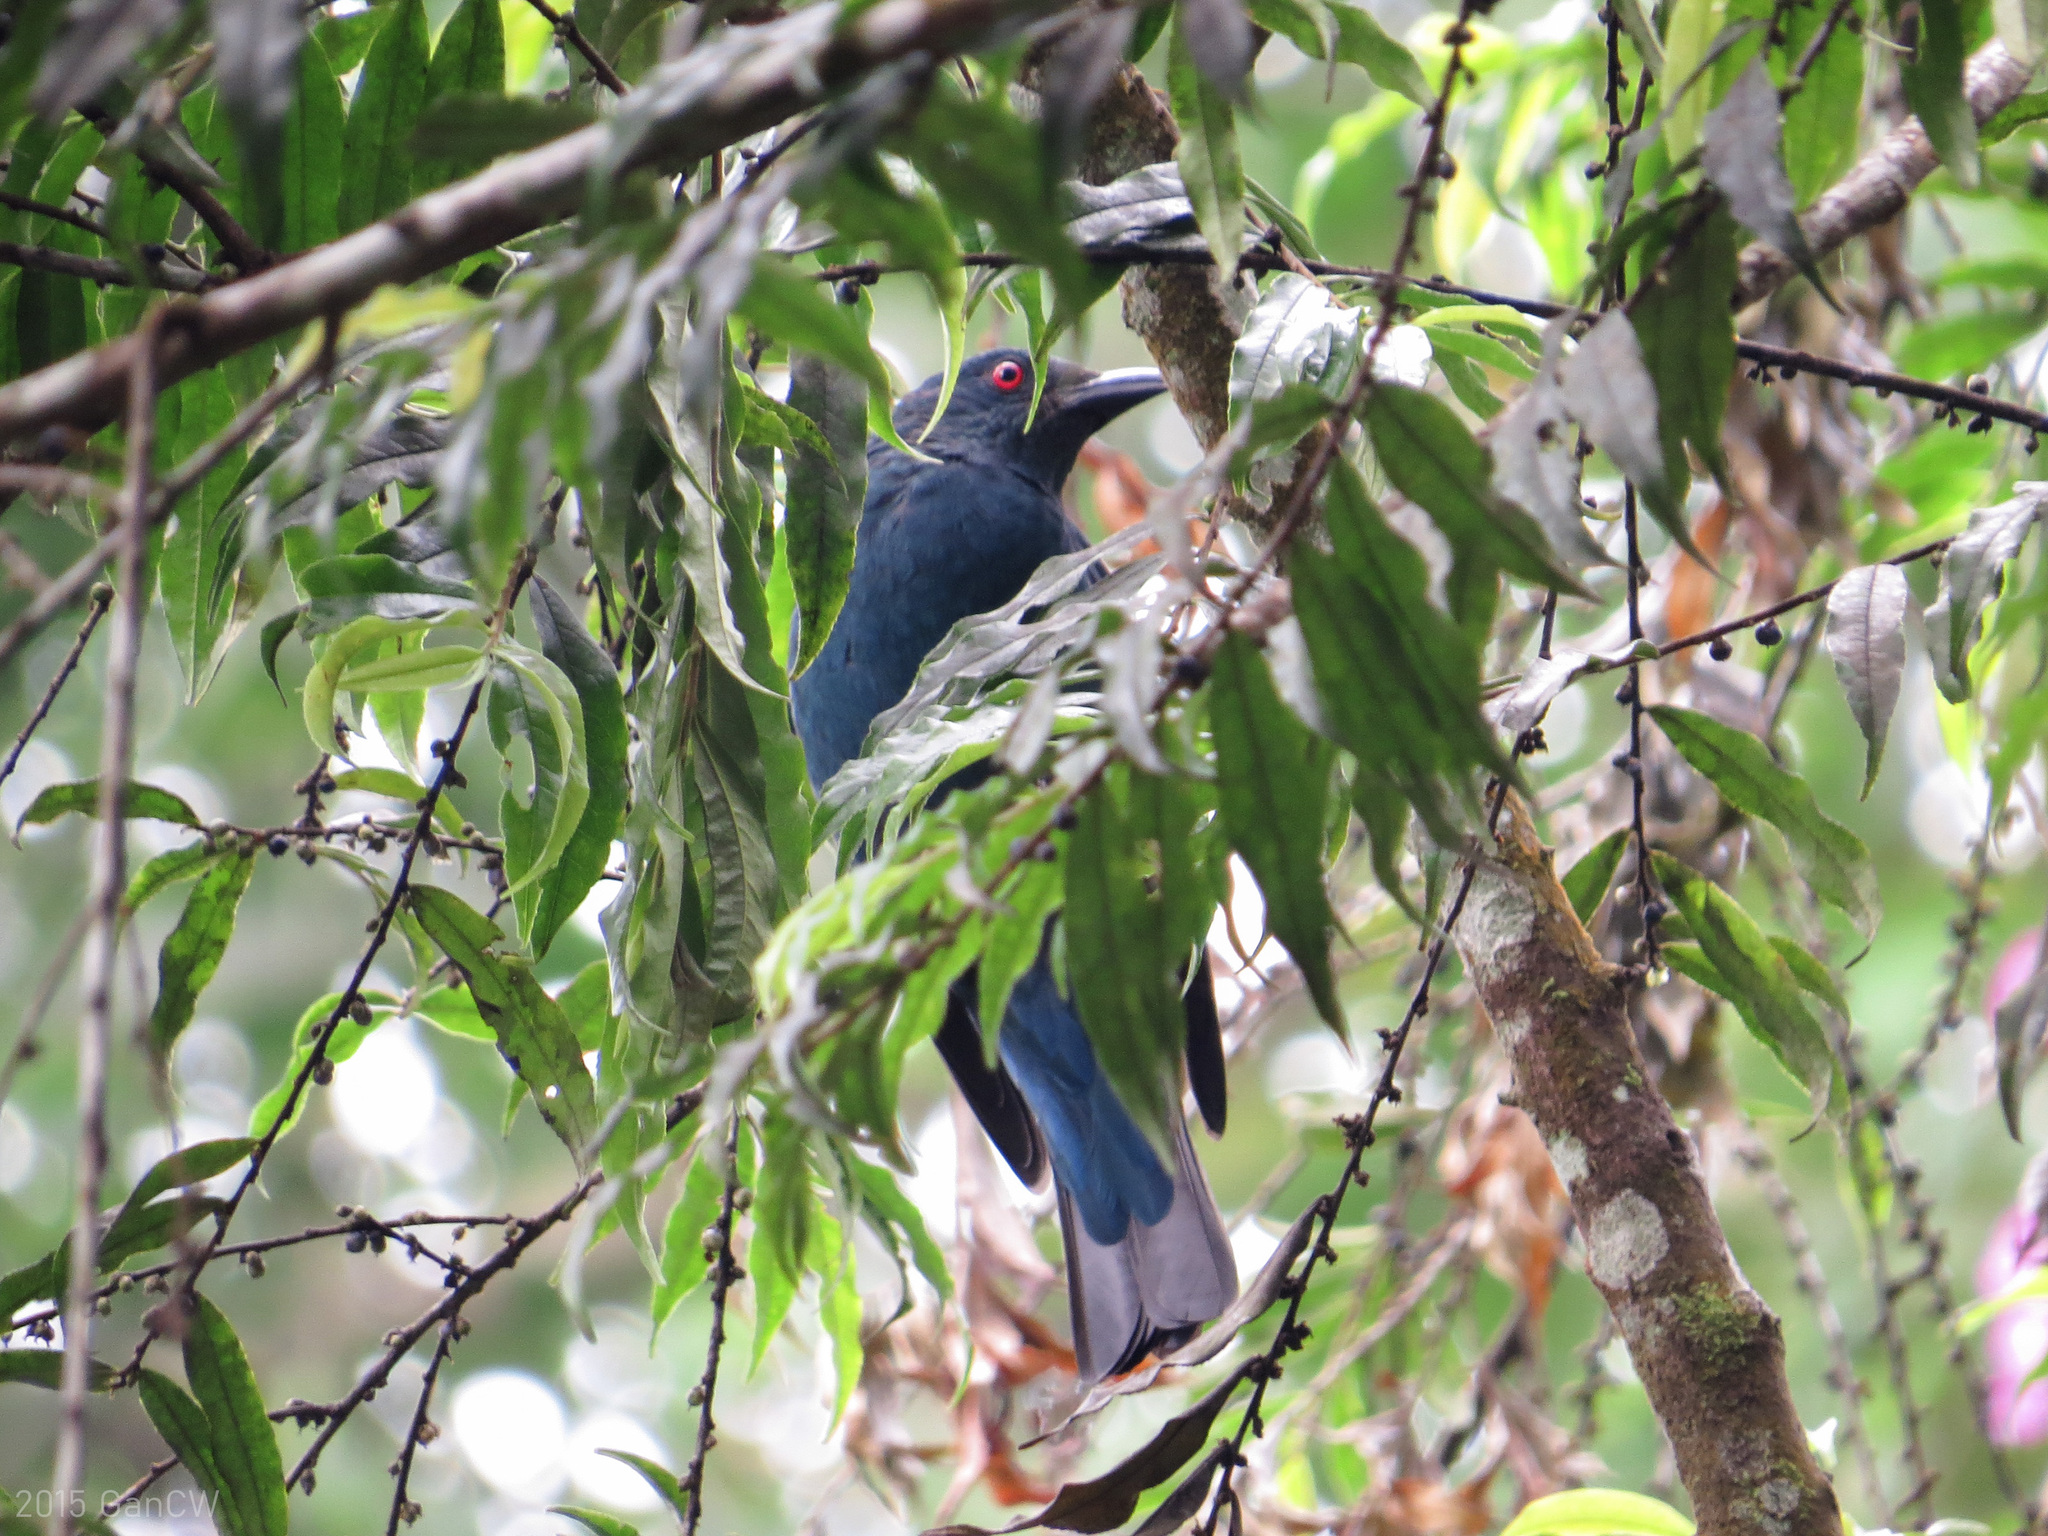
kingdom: Animalia
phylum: Chordata
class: Aves
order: Passeriformes
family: Irenidae
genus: Irena
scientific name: Irena puella
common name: Asian fairy-bluebird
